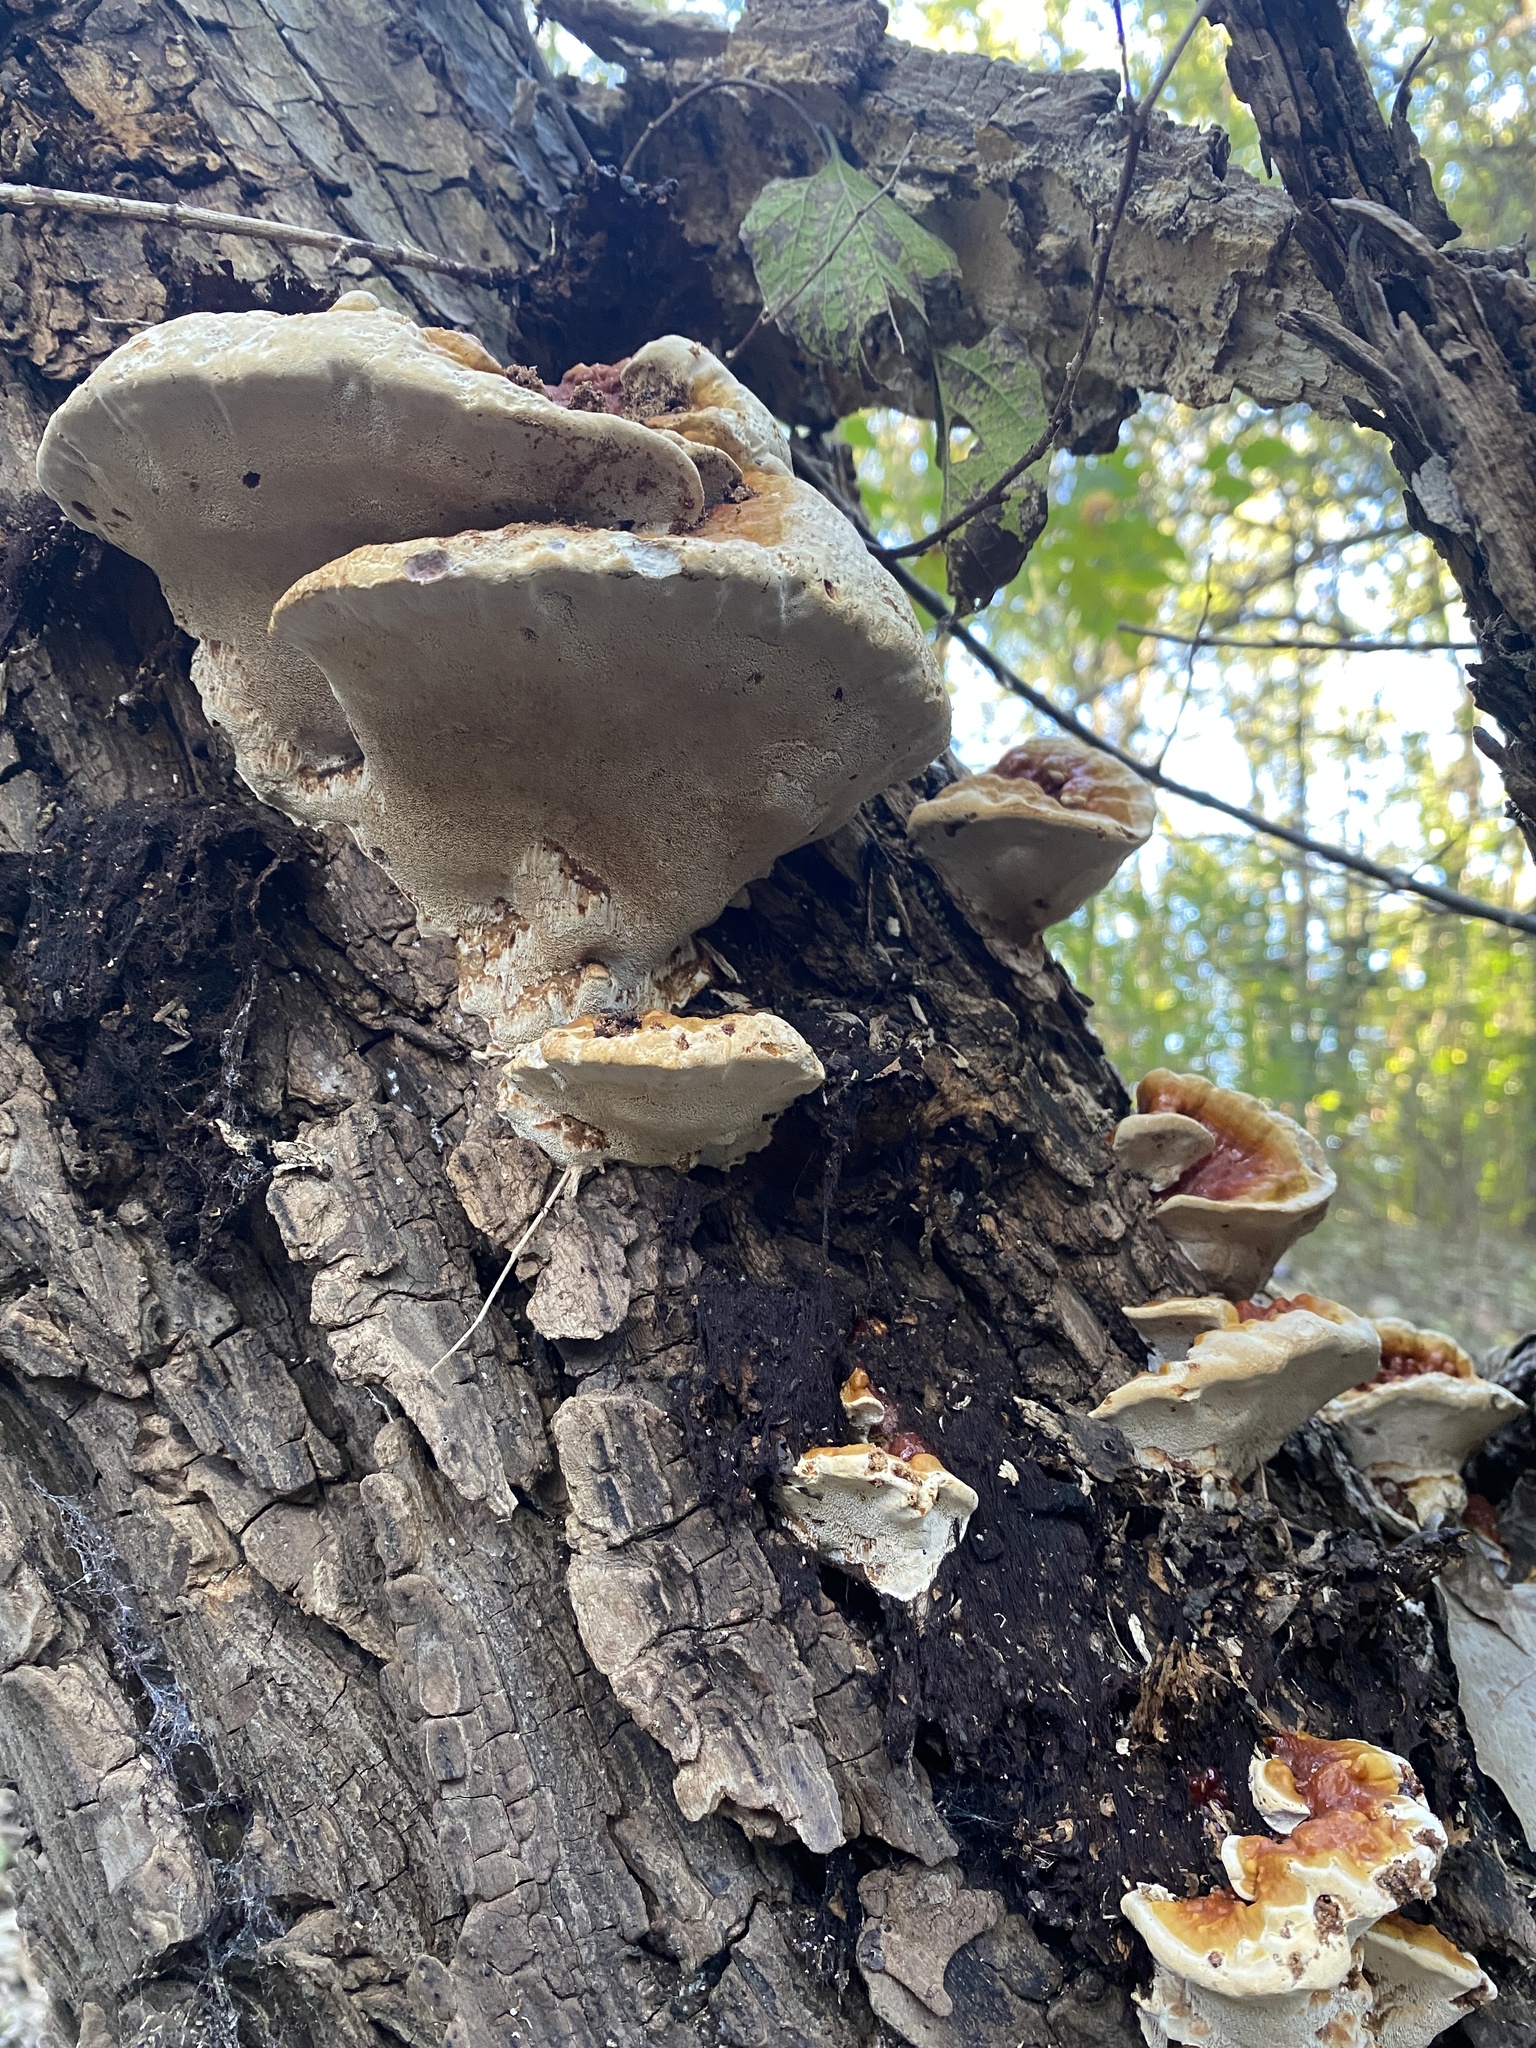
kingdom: Fungi
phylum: Basidiomycota
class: Agaricomycetes
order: Polyporales
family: Polyporaceae
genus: Ganoderma
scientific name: Ganoderma resinaceum
